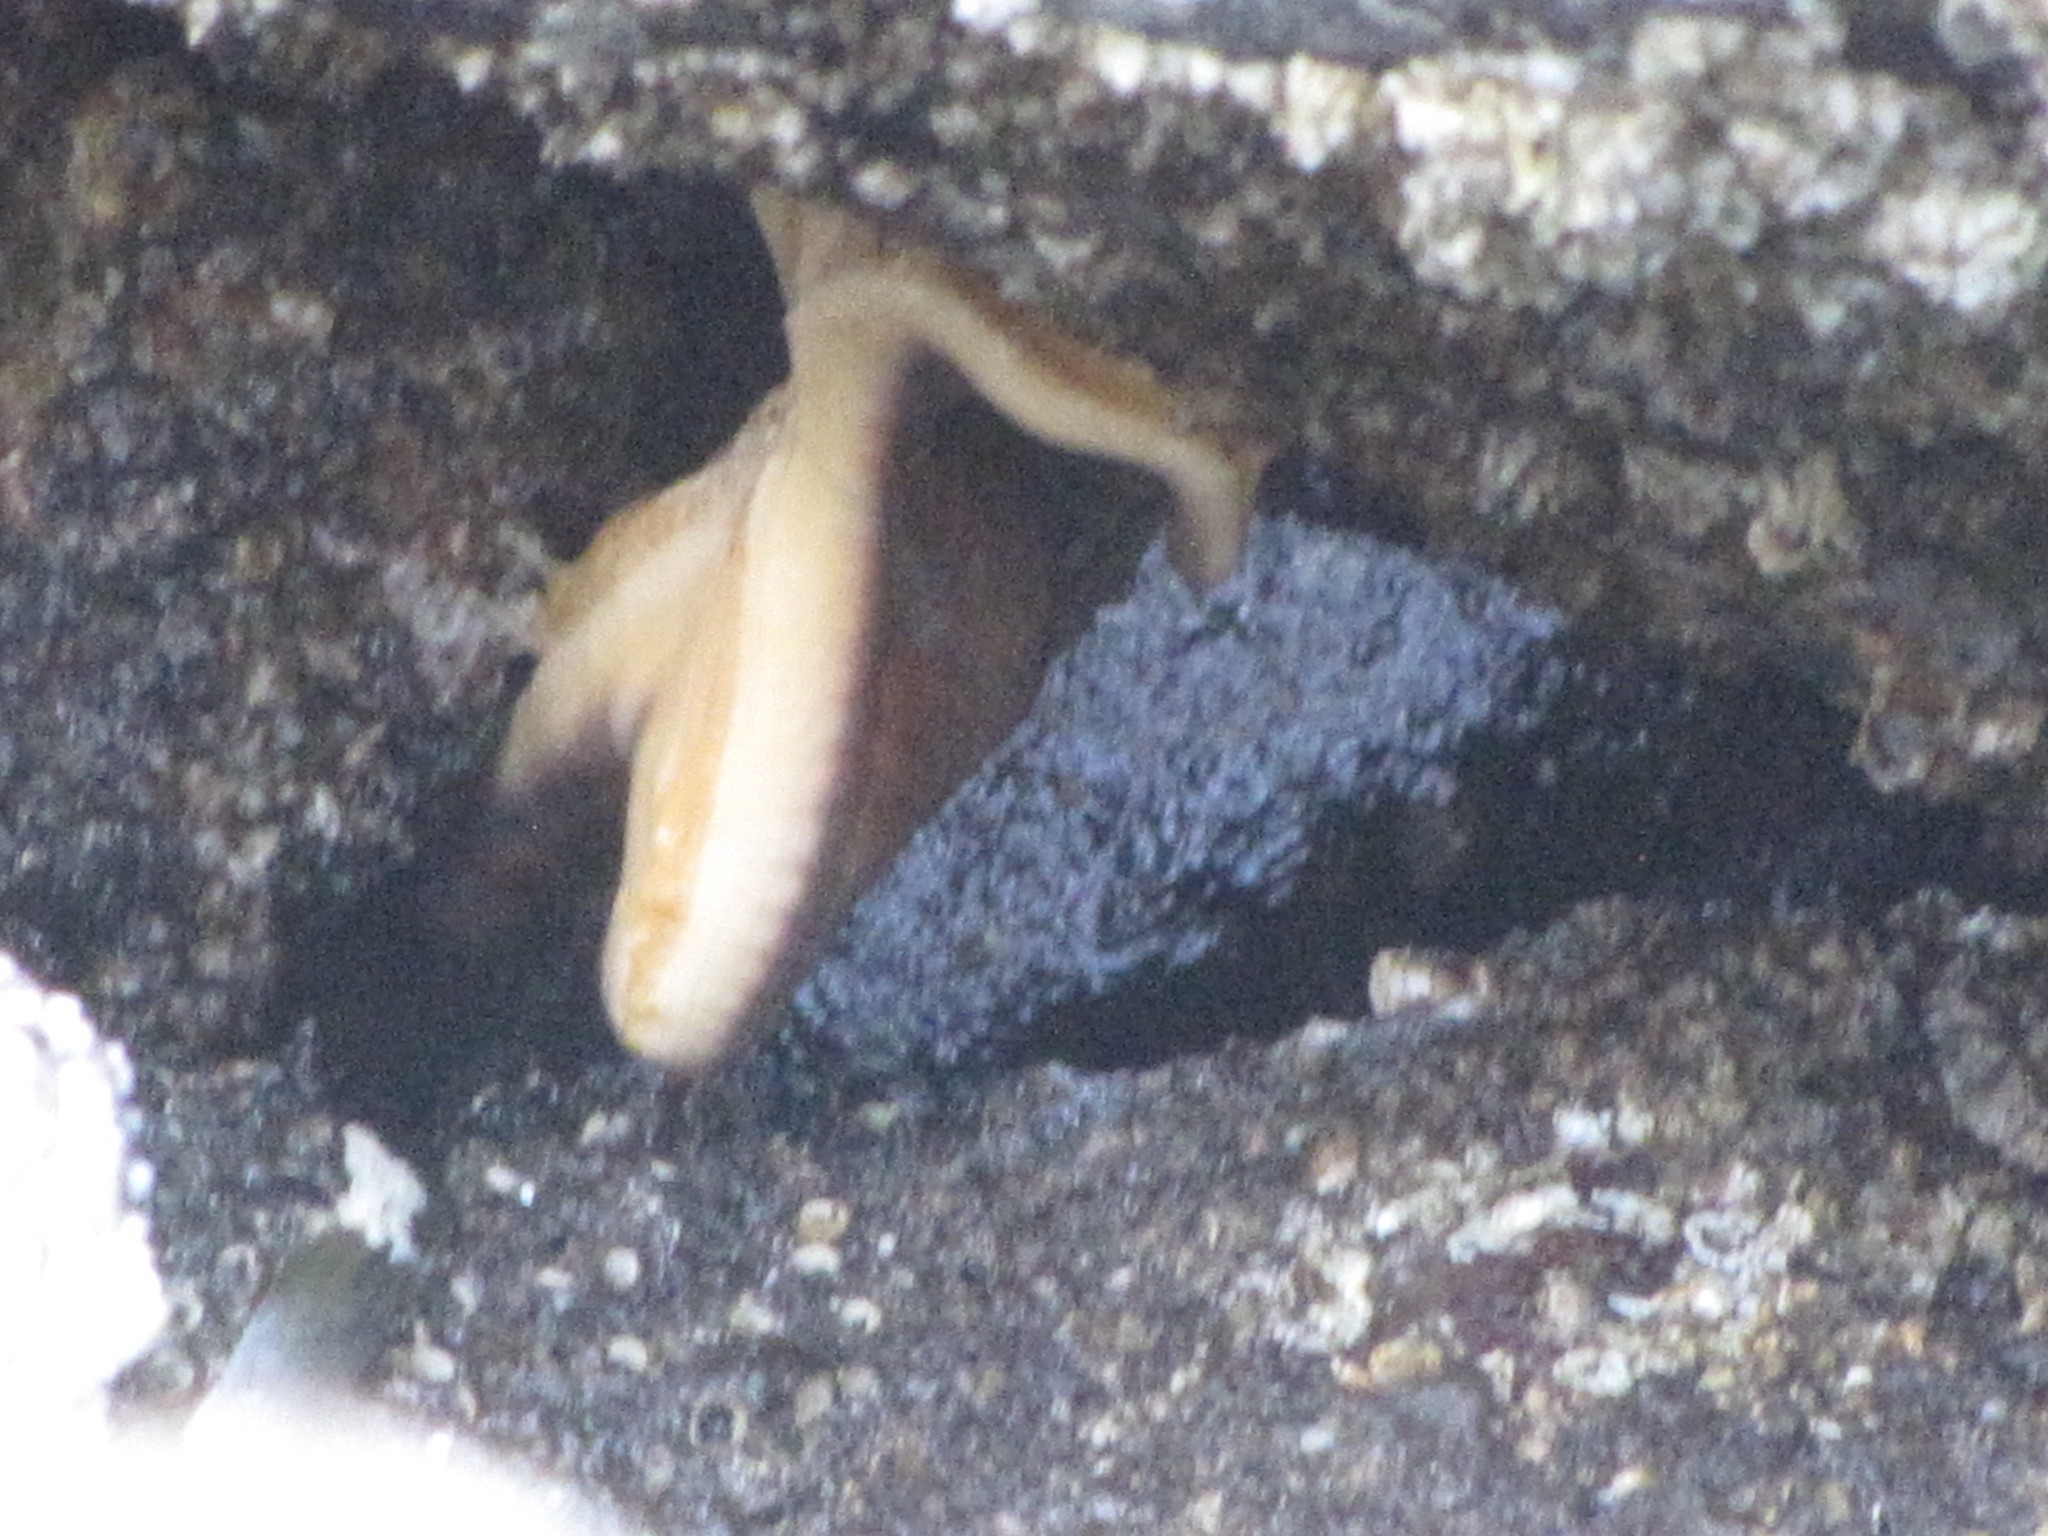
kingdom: Animalia
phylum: Echinodermata
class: Asteroidea
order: Valvatida
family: Asteropseidae
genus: Dermasterias
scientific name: Dermasterias imbricata
